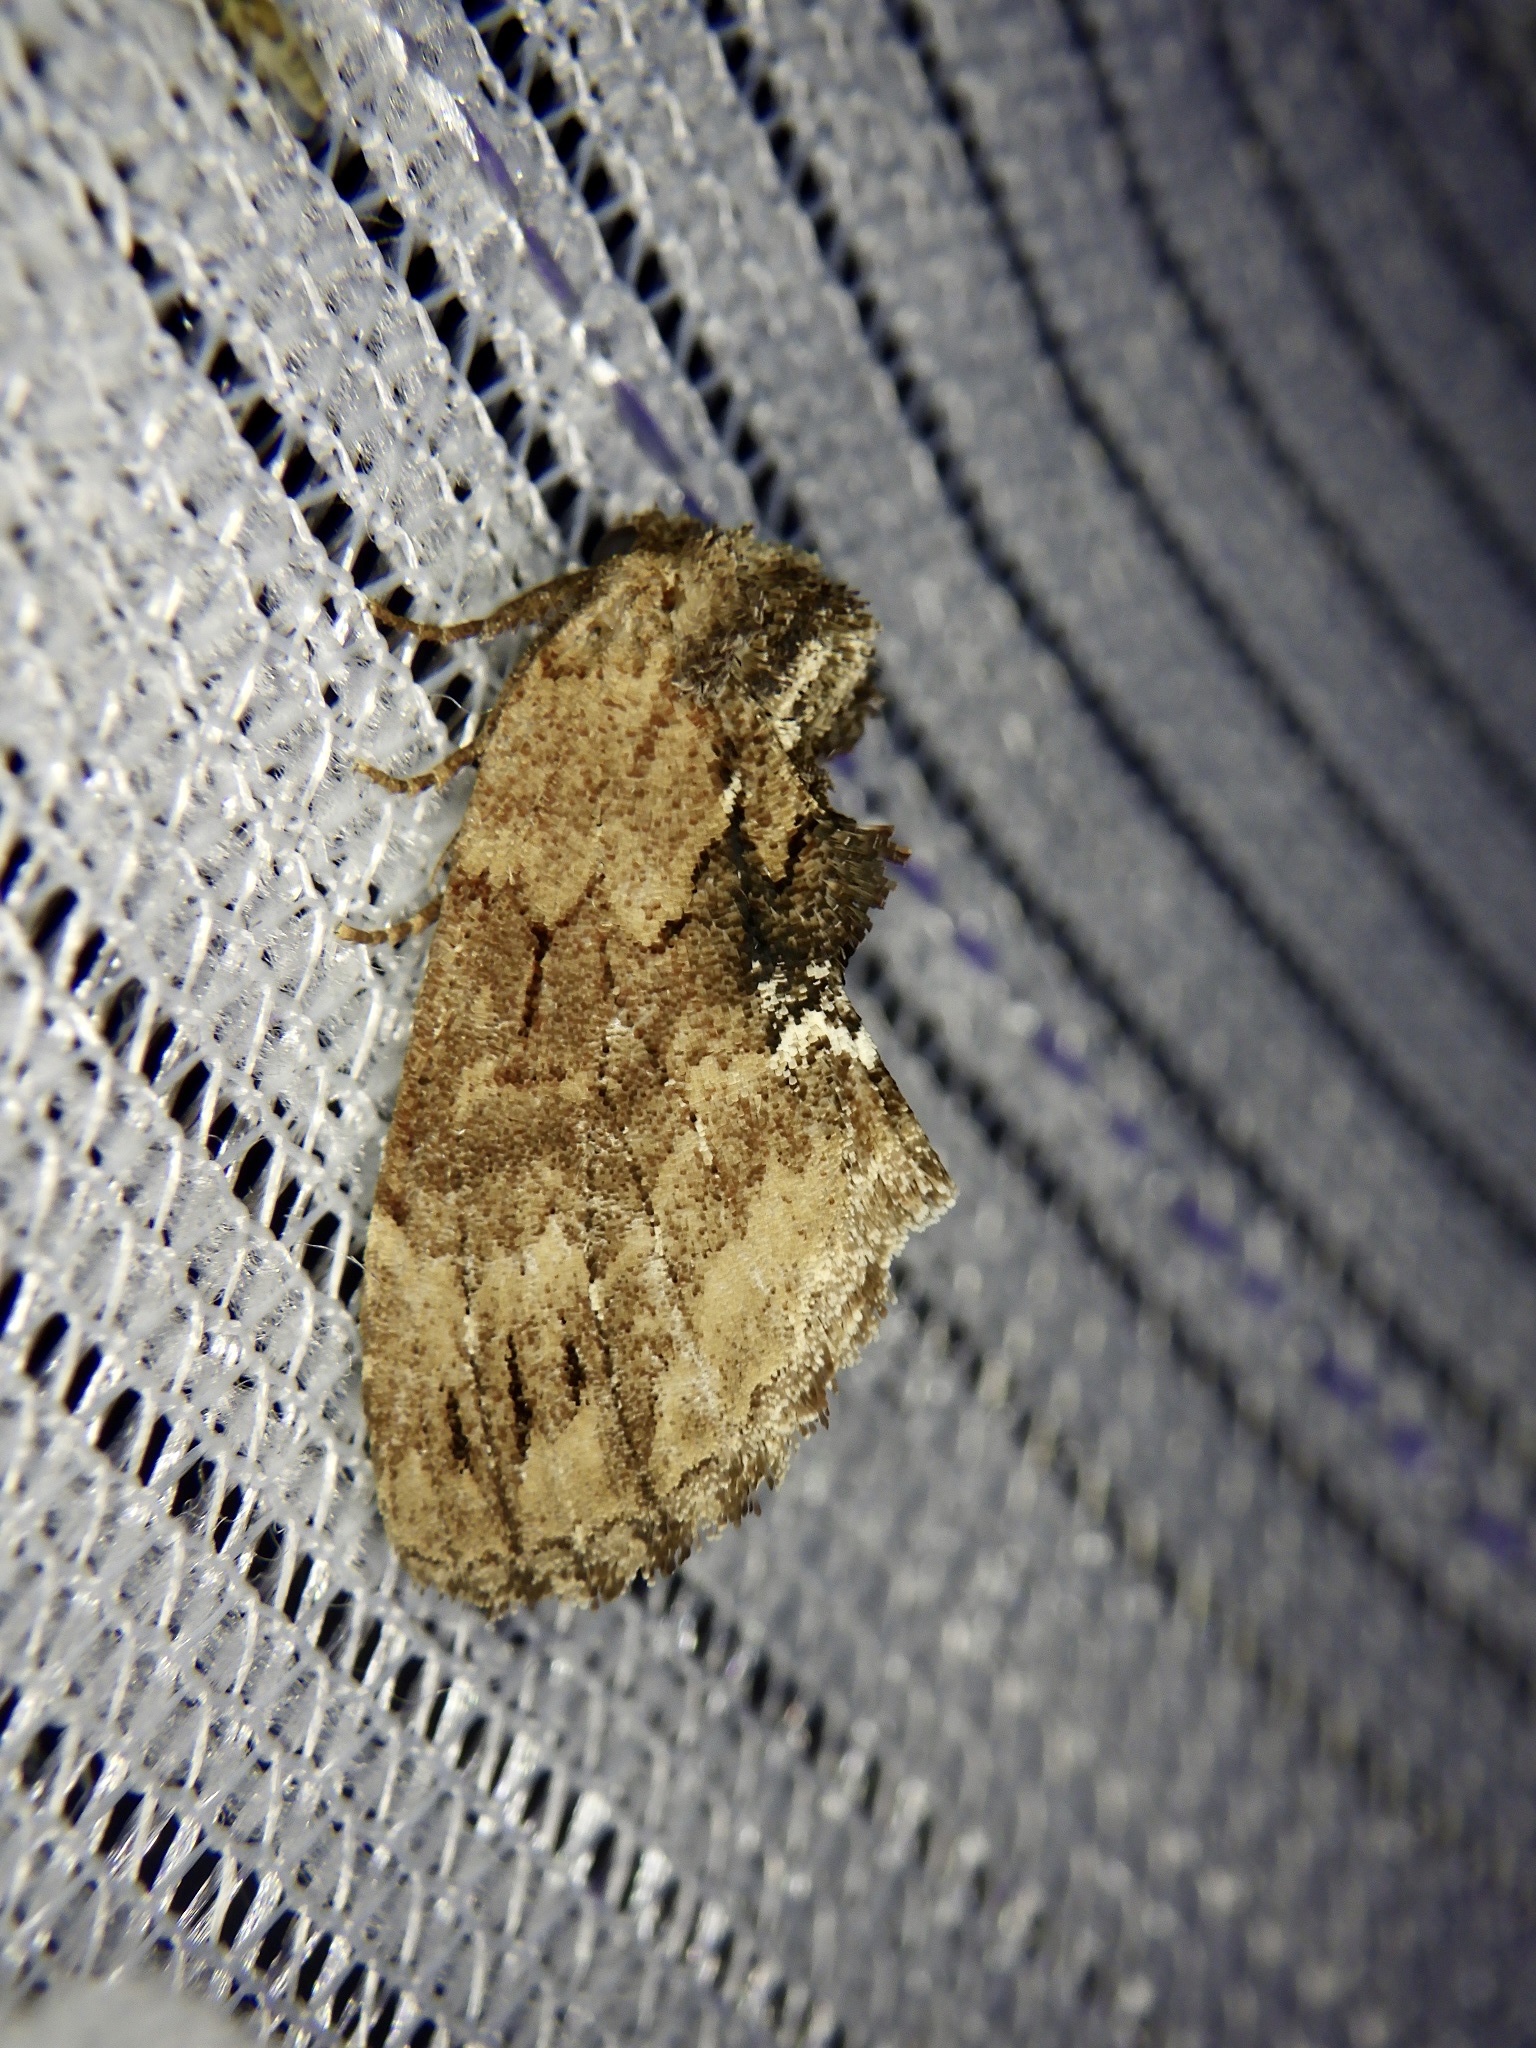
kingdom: Animalia
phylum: Arthropoda
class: Insecta
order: Lepidoptera
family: Notodontidae
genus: Lophontosia
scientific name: Lophontosia
